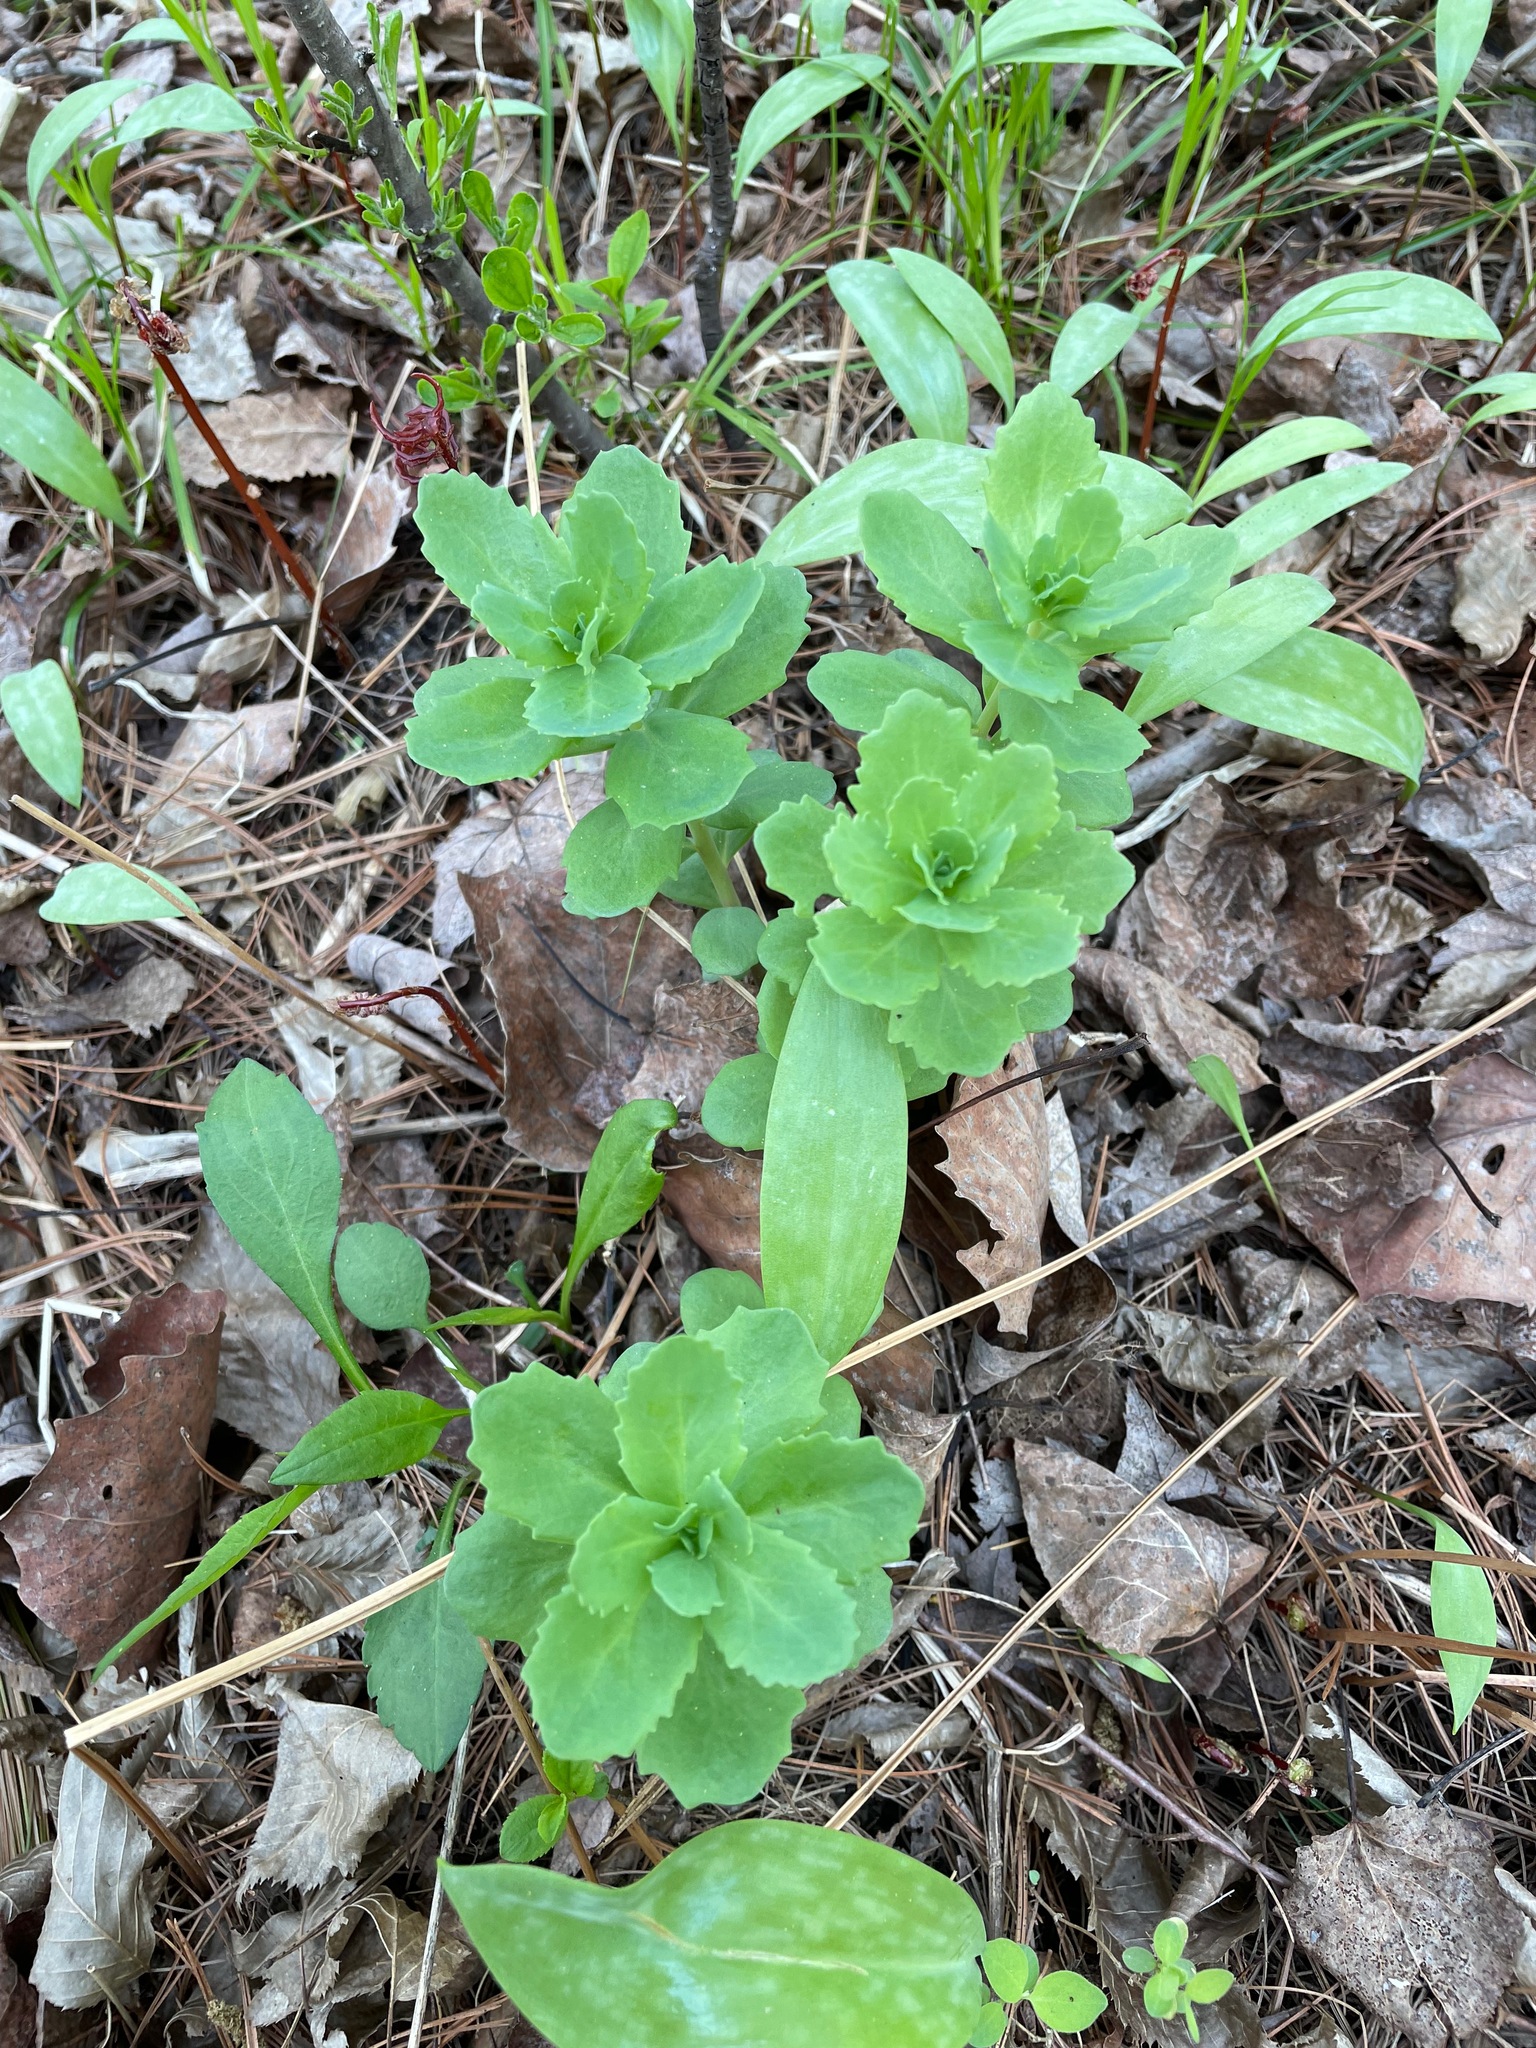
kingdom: Plantae
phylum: Tracheophyta
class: Magnoliopsida
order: Saxifragales
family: Crassulaceae
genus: Hylotelephium
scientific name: Hylotelephium telephium
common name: Live-forever
